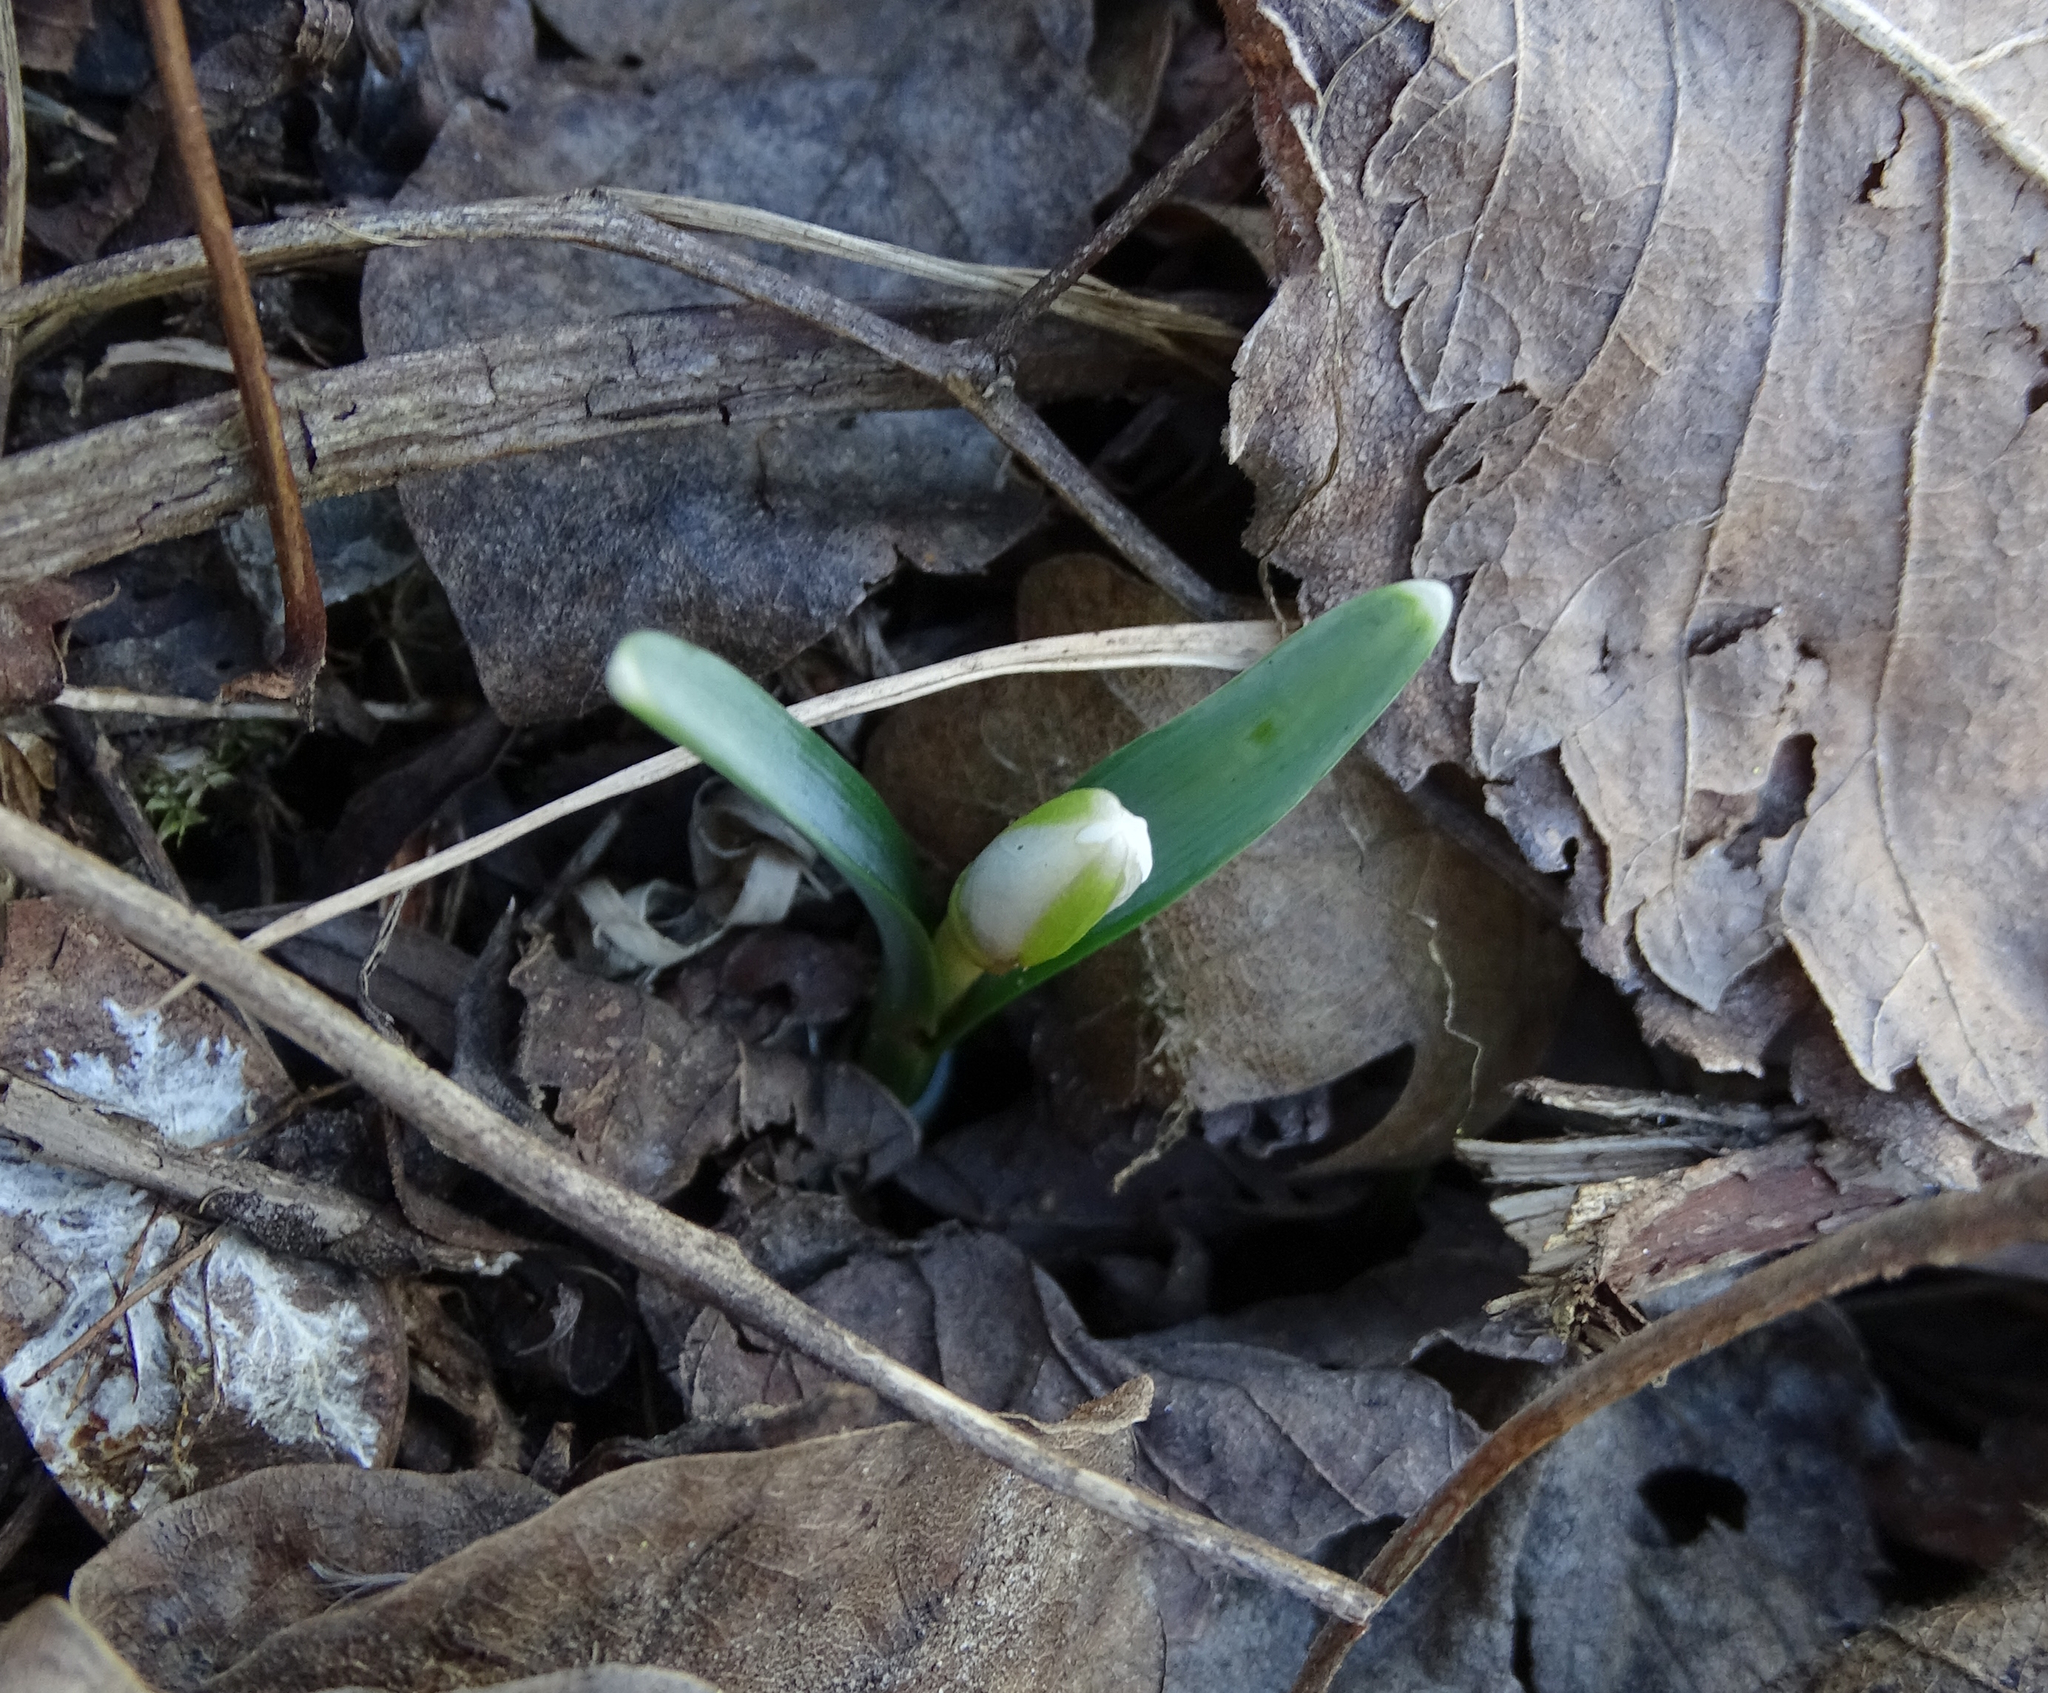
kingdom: Plantae
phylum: Tracheophyta
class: Liliopsida
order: Asparagales
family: Amaryllidaceae
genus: Galanthus
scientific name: Galanthus nivalis
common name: Snowdrop
